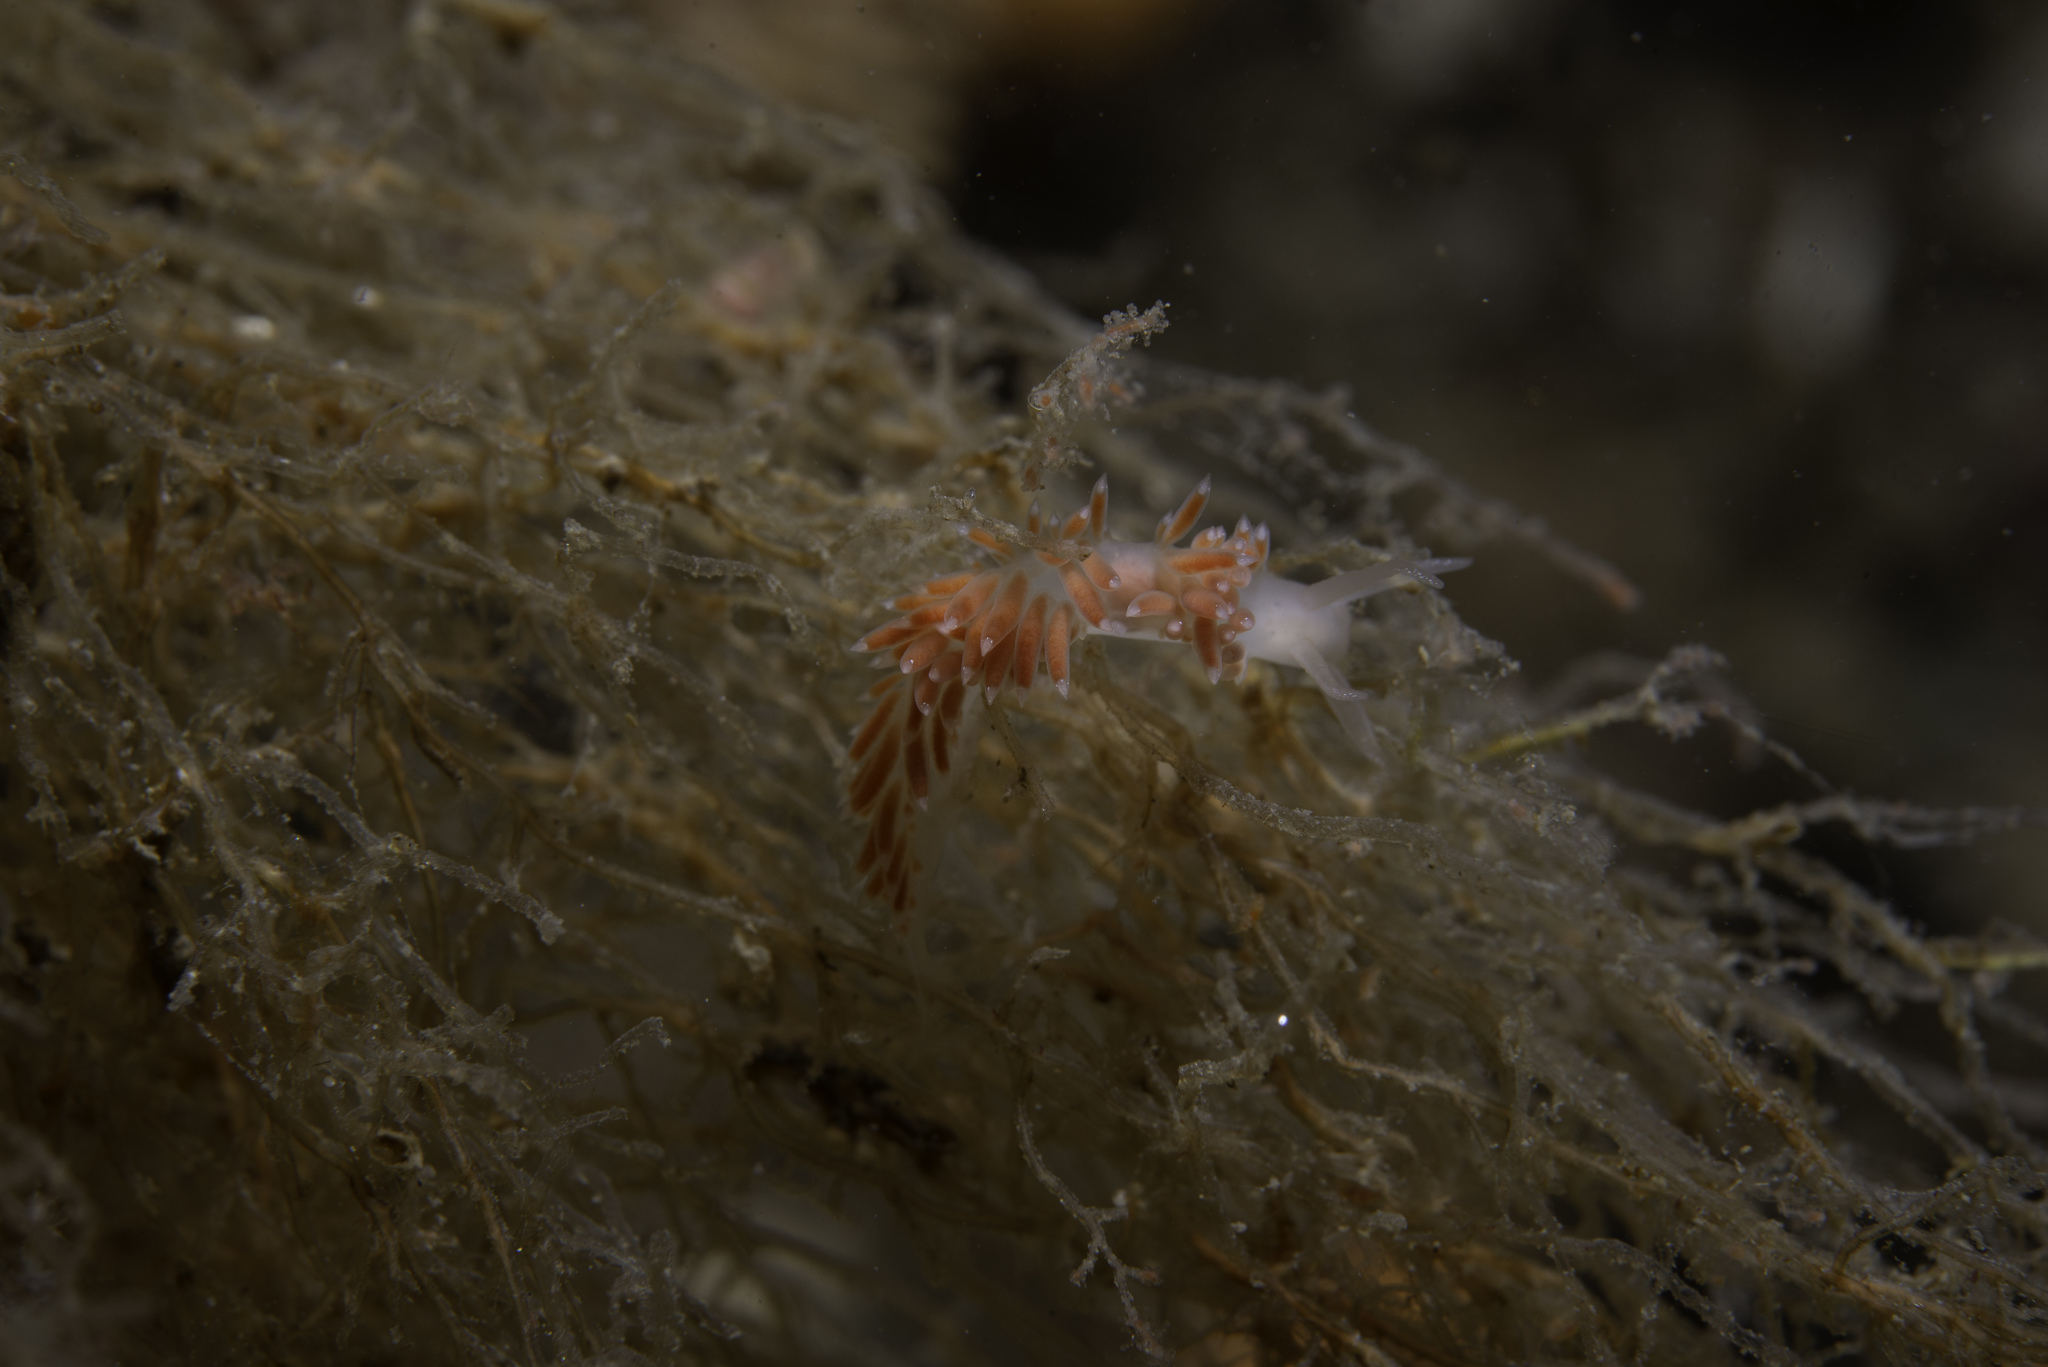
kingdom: Animalia
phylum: Mollusca
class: Gastropoda
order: Nudibranchia
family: Coryphellidae
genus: Coryphella
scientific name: Coryphella verrucosa
